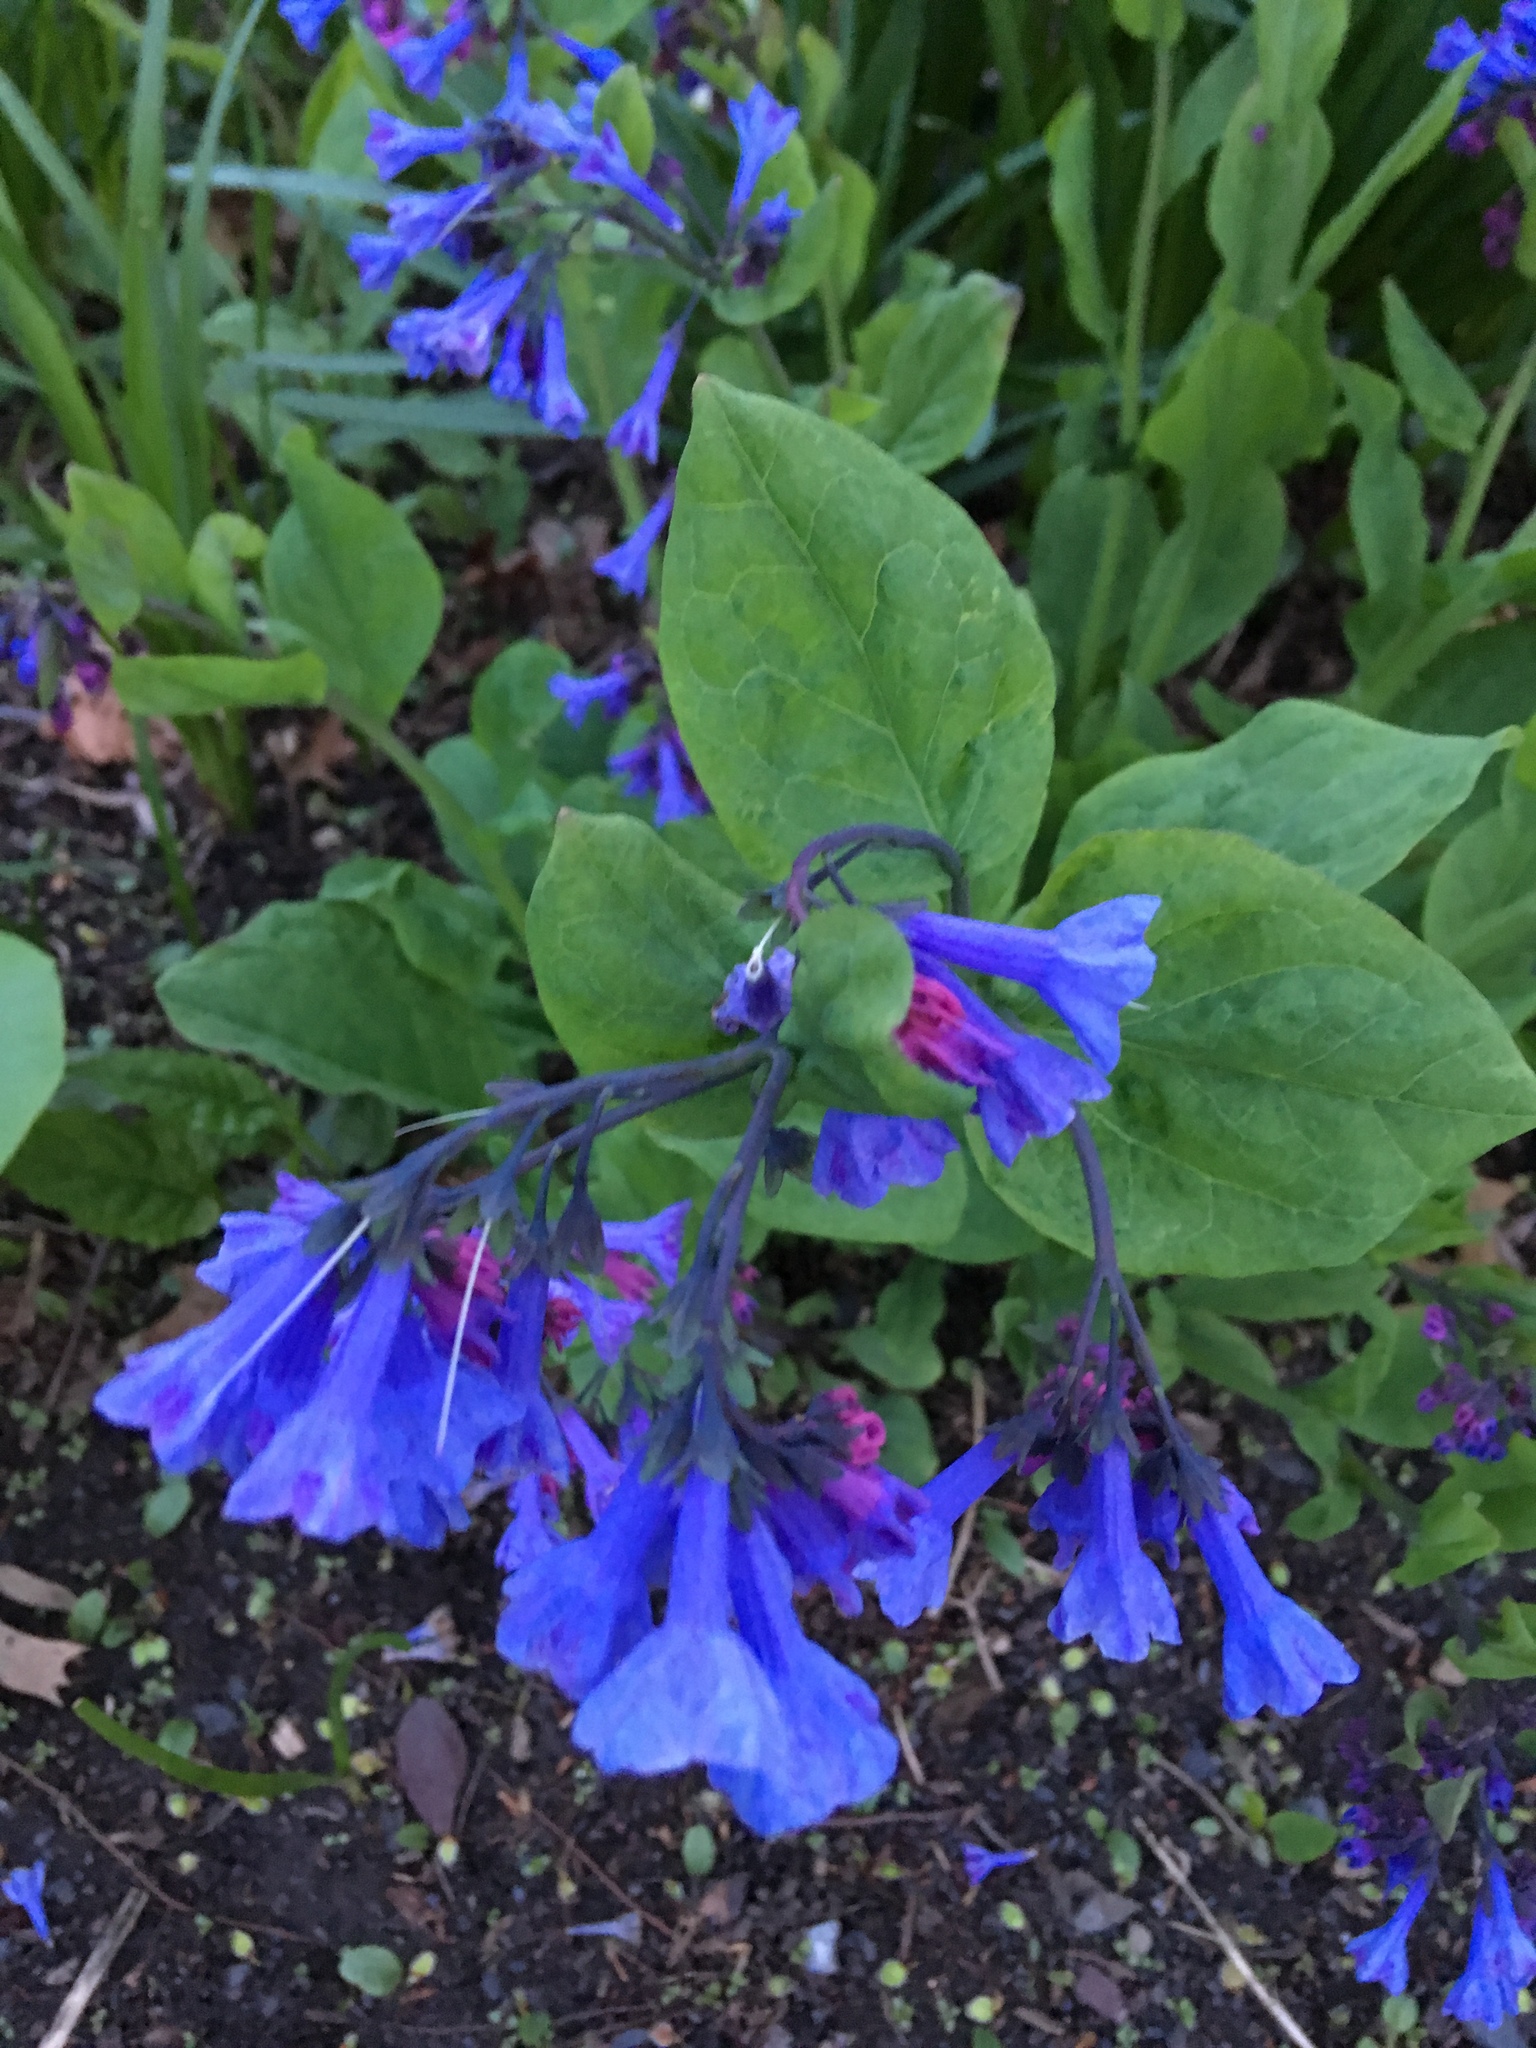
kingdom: Plantae
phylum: Tracheophyta
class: Magnoliopsida
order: Boraginales
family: Boraginaceae
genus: Mertensia
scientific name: Mertensia virginica
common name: Virginia bluebells
